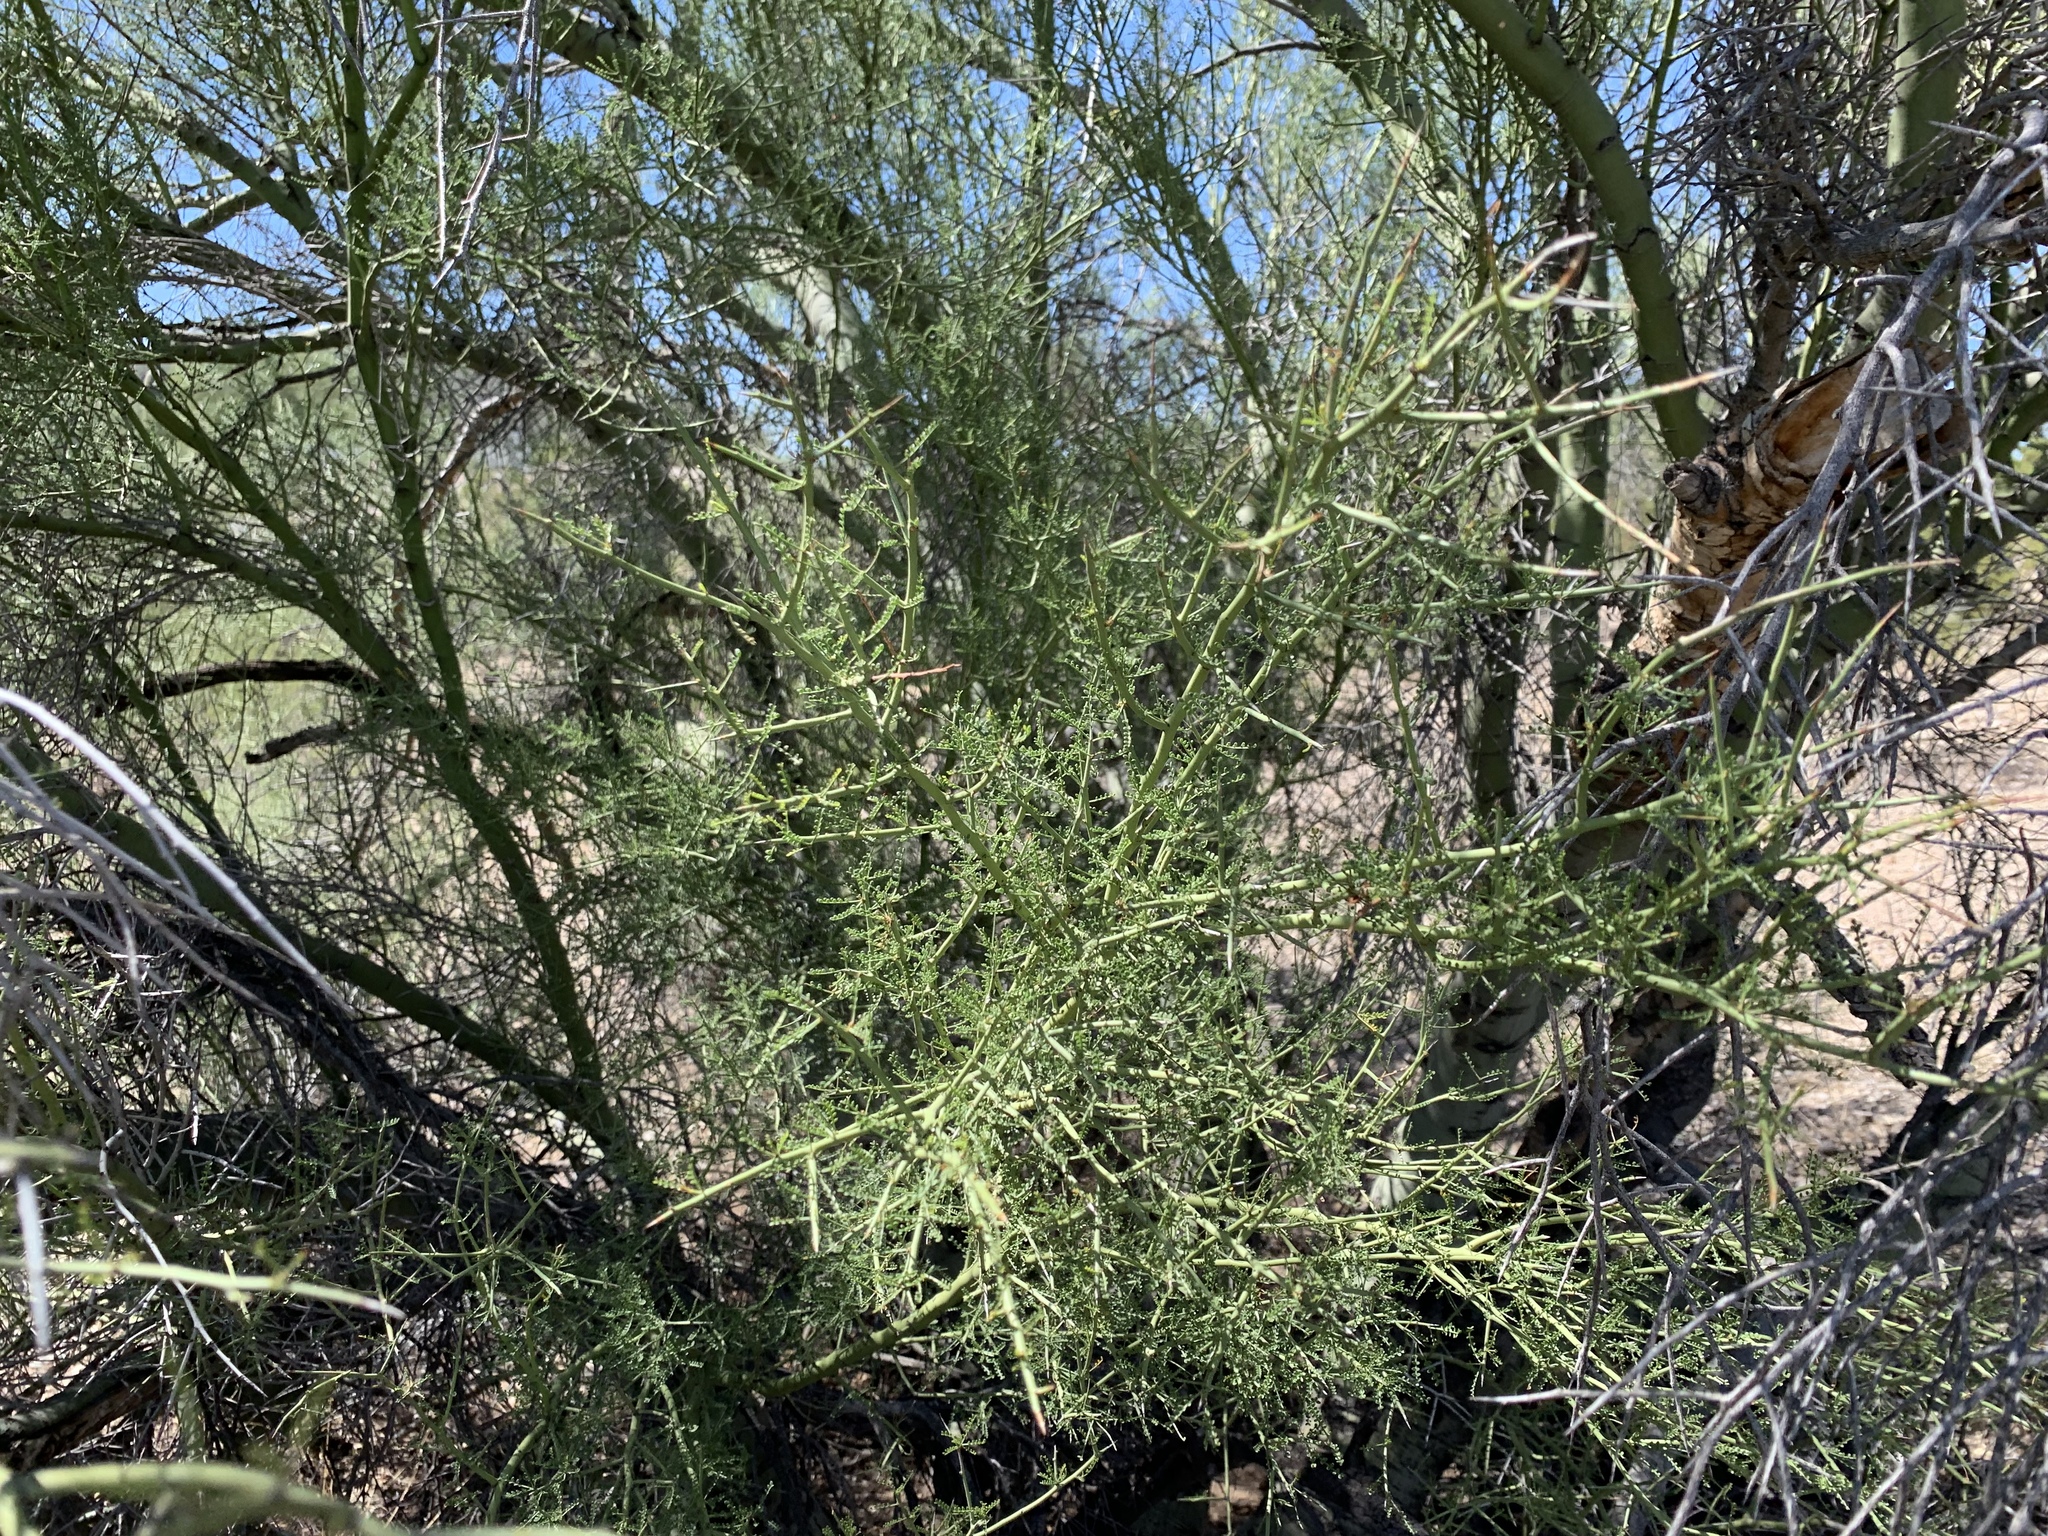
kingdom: Plantae
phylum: Tracheophyta
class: Magnoliopsida
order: Fabales
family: Fabaceae
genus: Parkinsonia
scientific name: Parkinsonia microphylla
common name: Yellow paloverde
